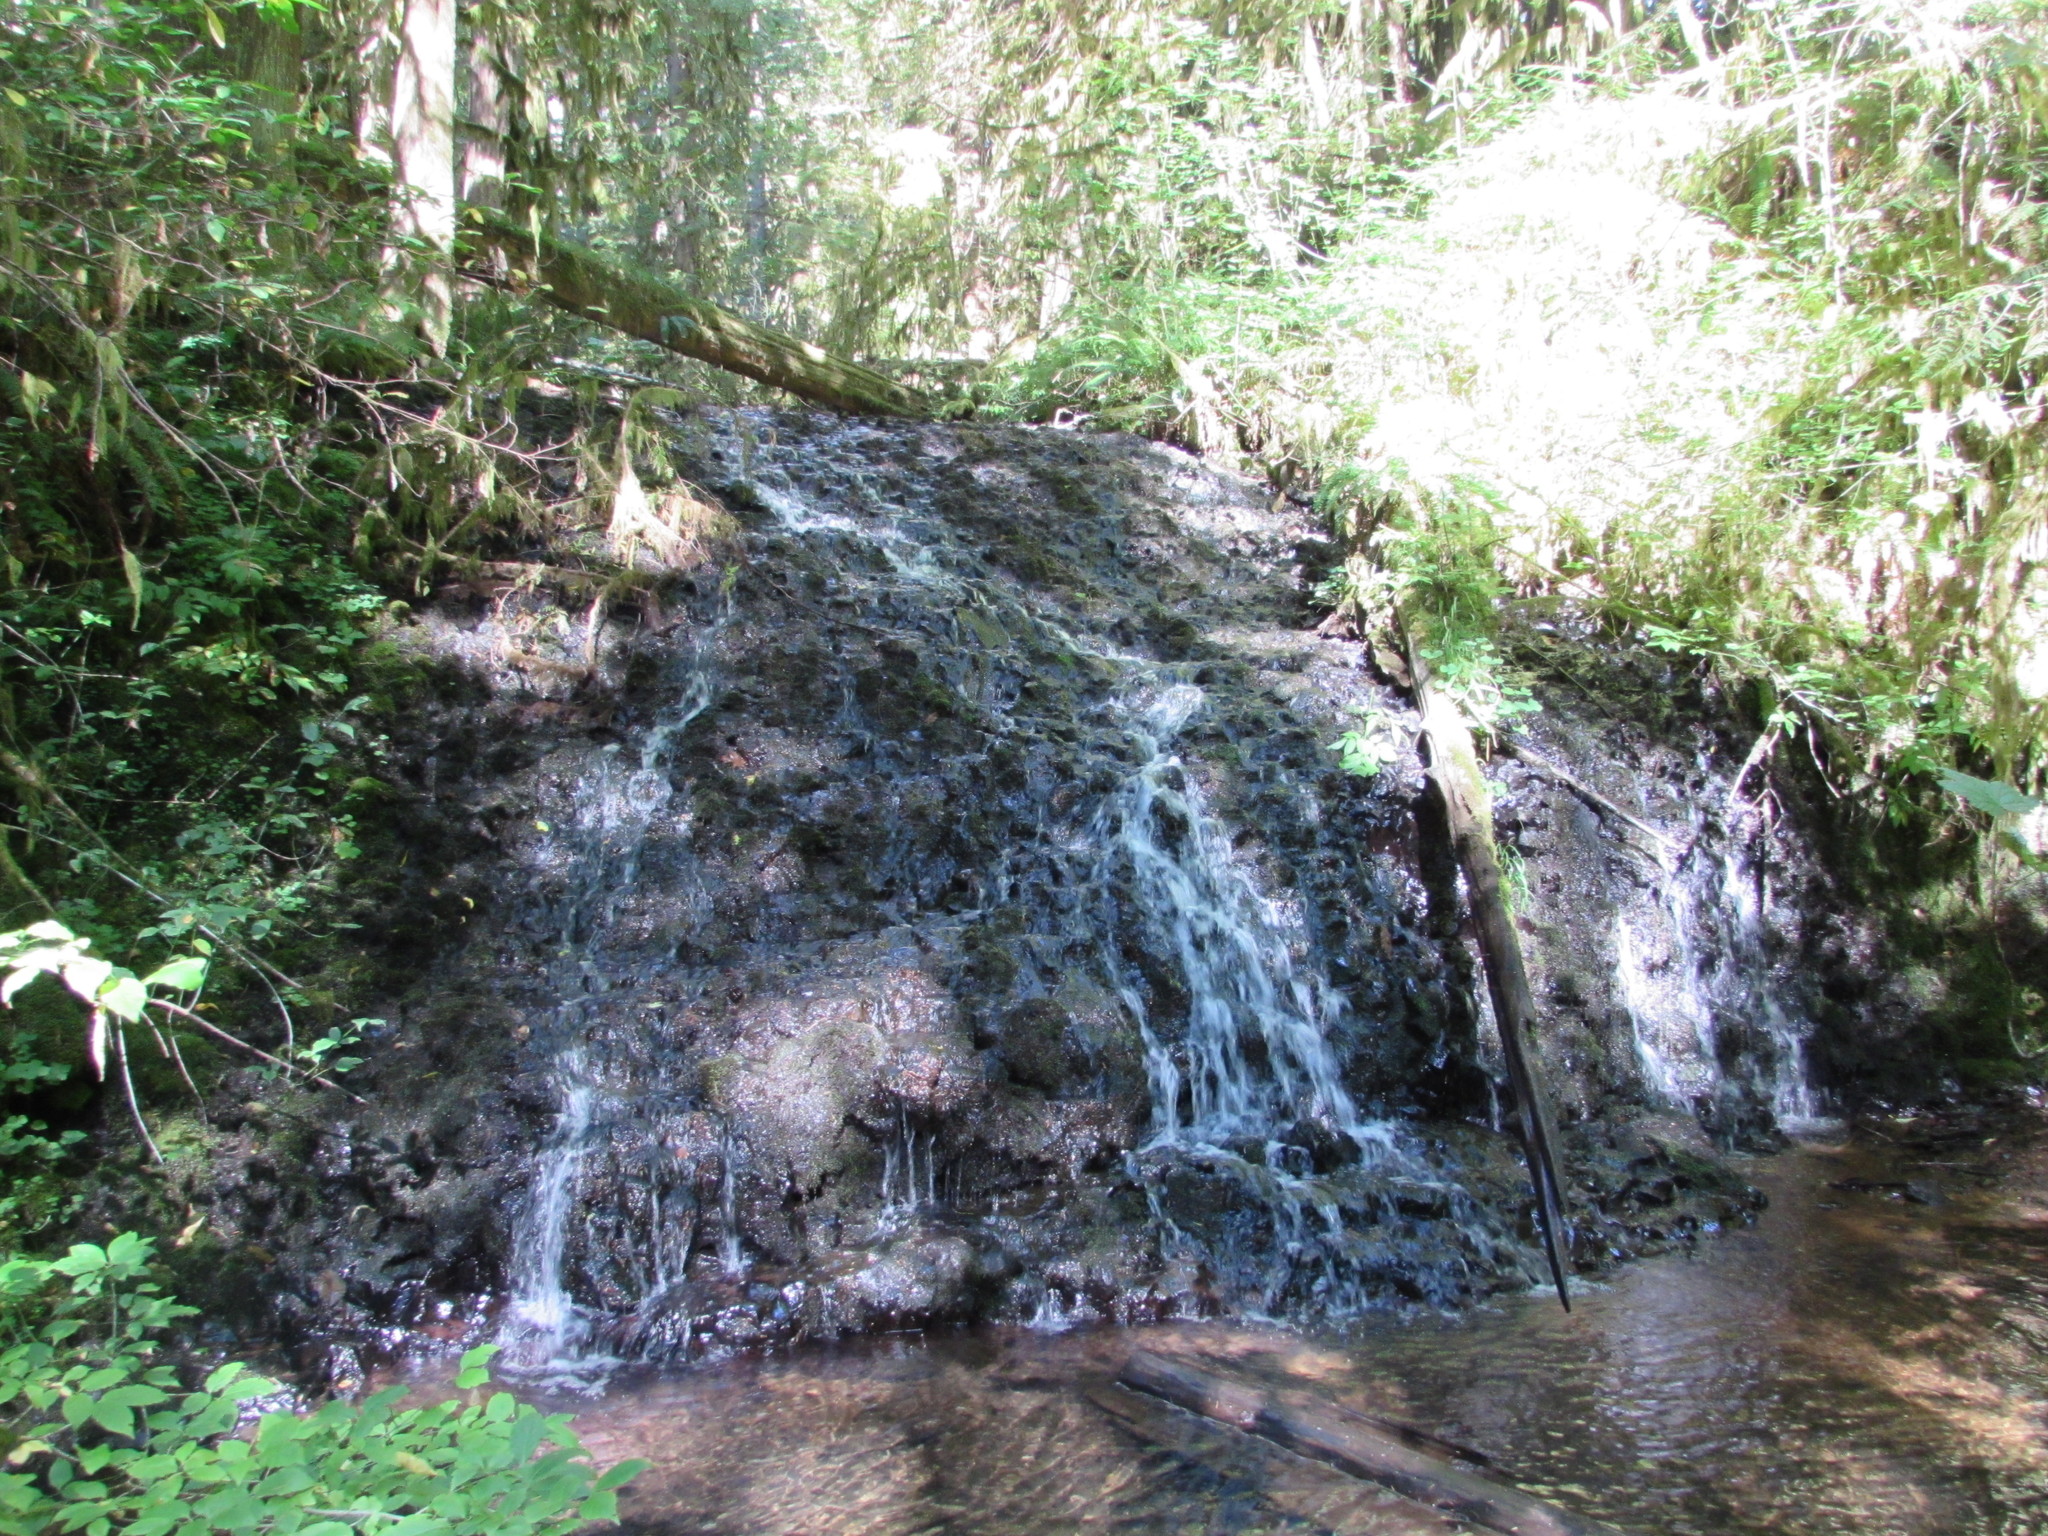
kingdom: Animalia
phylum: Chordata
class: Amphibia
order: Caudata
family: Ambystomatidae
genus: Dicamptodon
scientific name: Dicamptodon tenebrosus
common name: Coastal giant salamander
